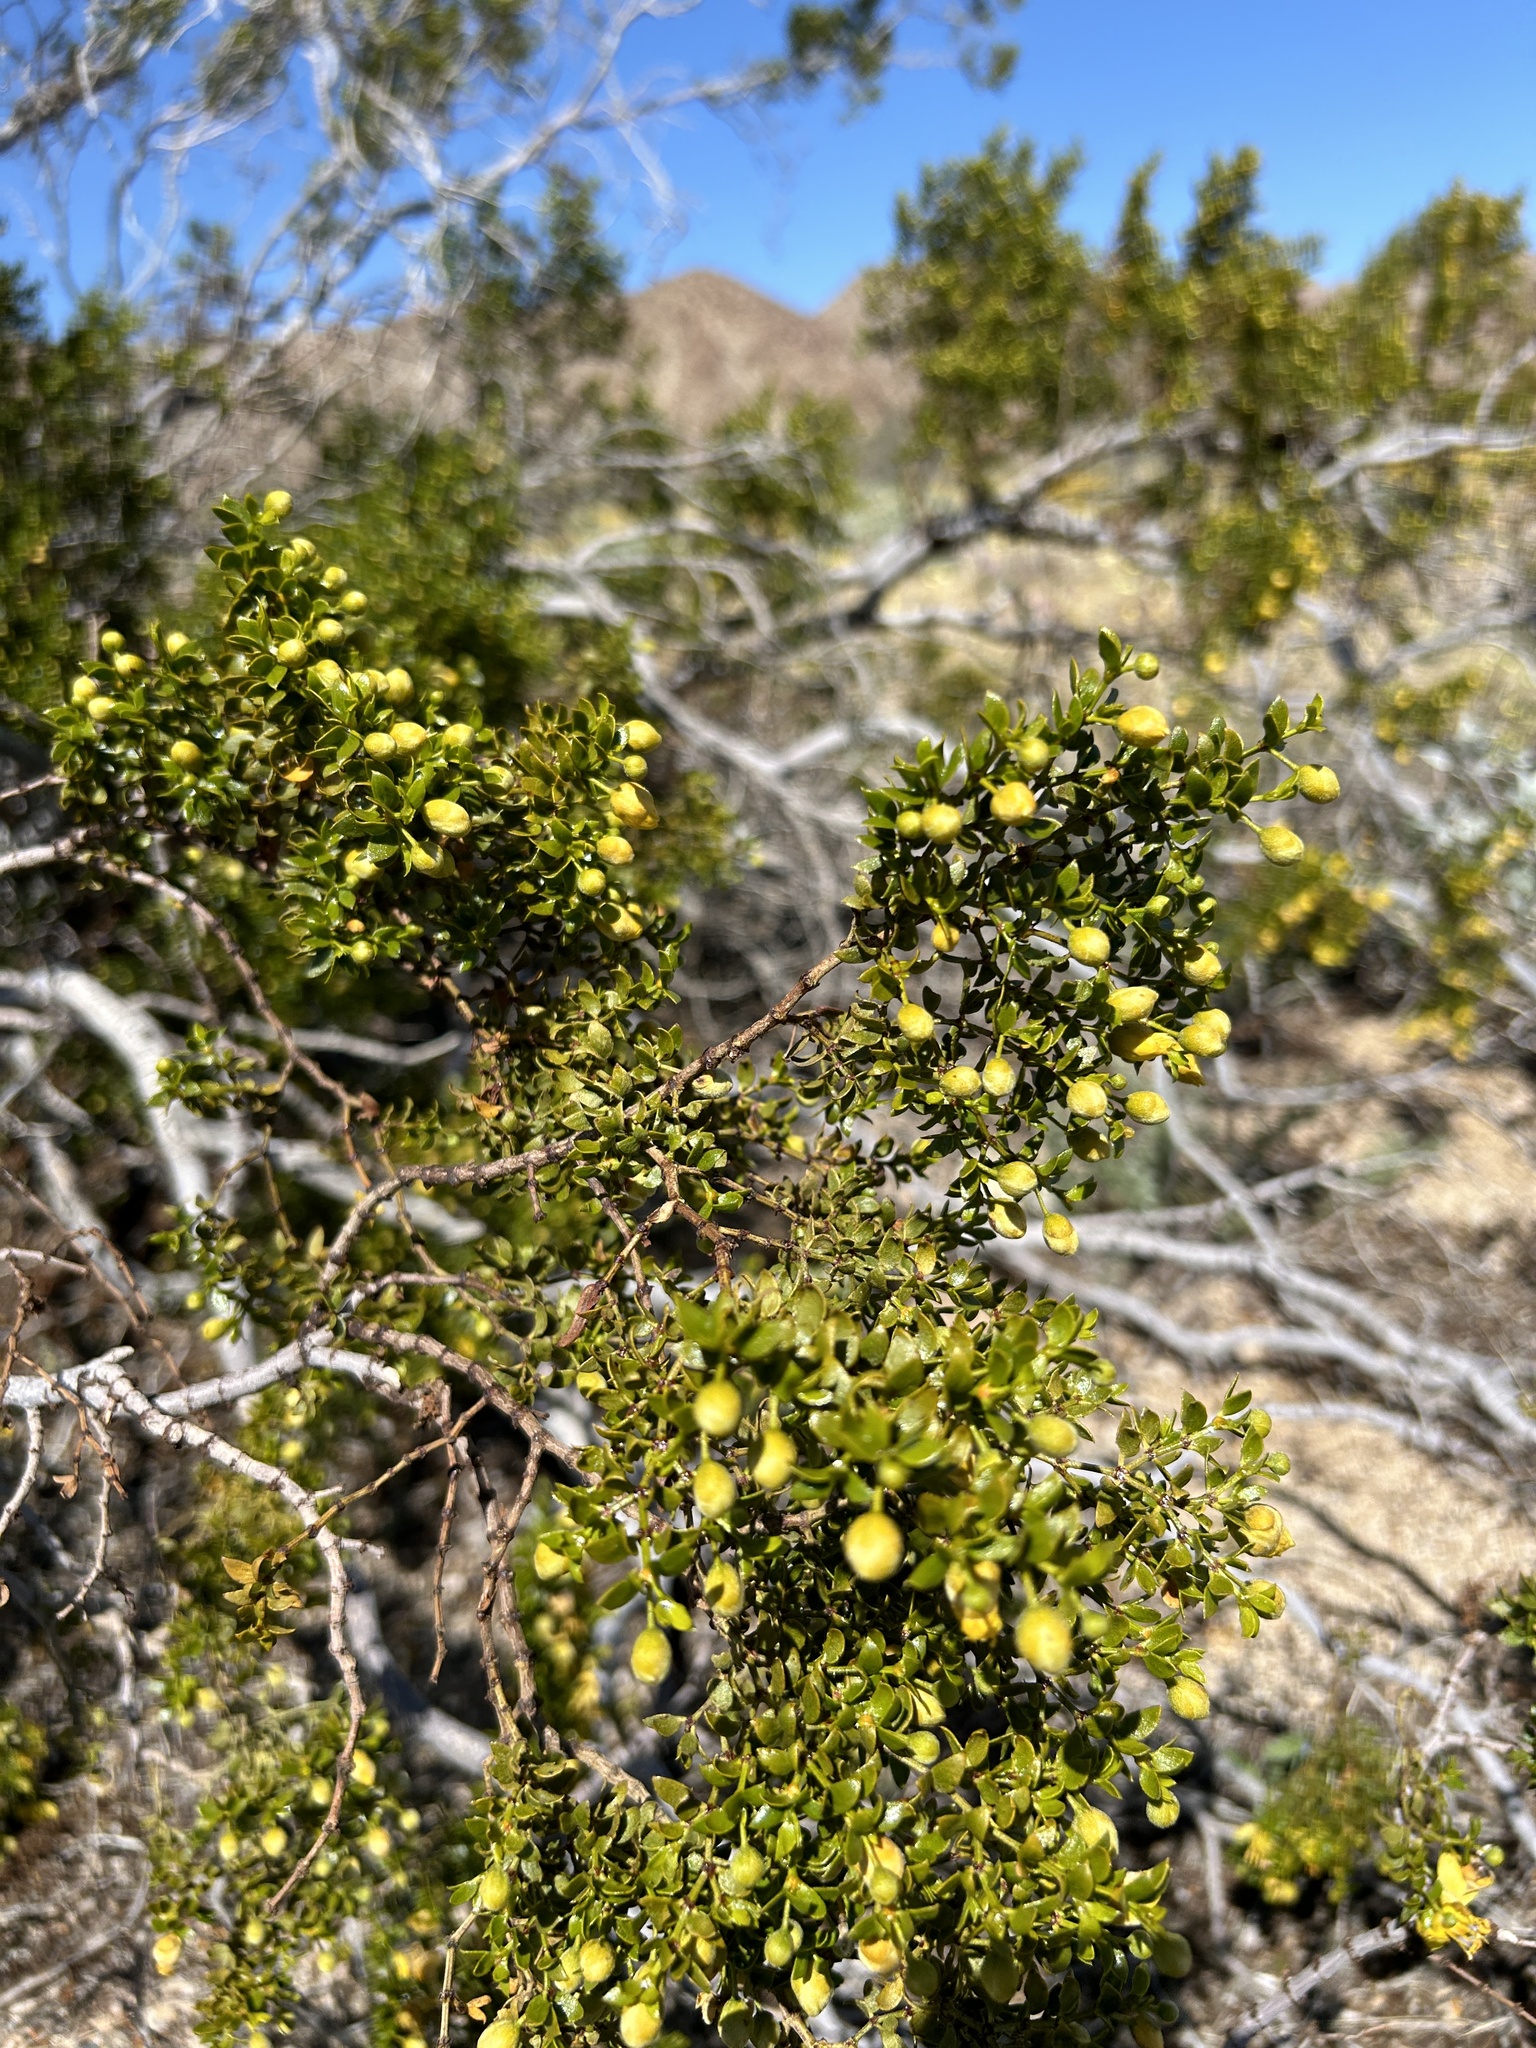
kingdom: Plantae
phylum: Tracheophyta
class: Magnoliopsida
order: Zygophyllales
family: Zygophyllaceae
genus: Larrea
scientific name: Larrea tridentata
